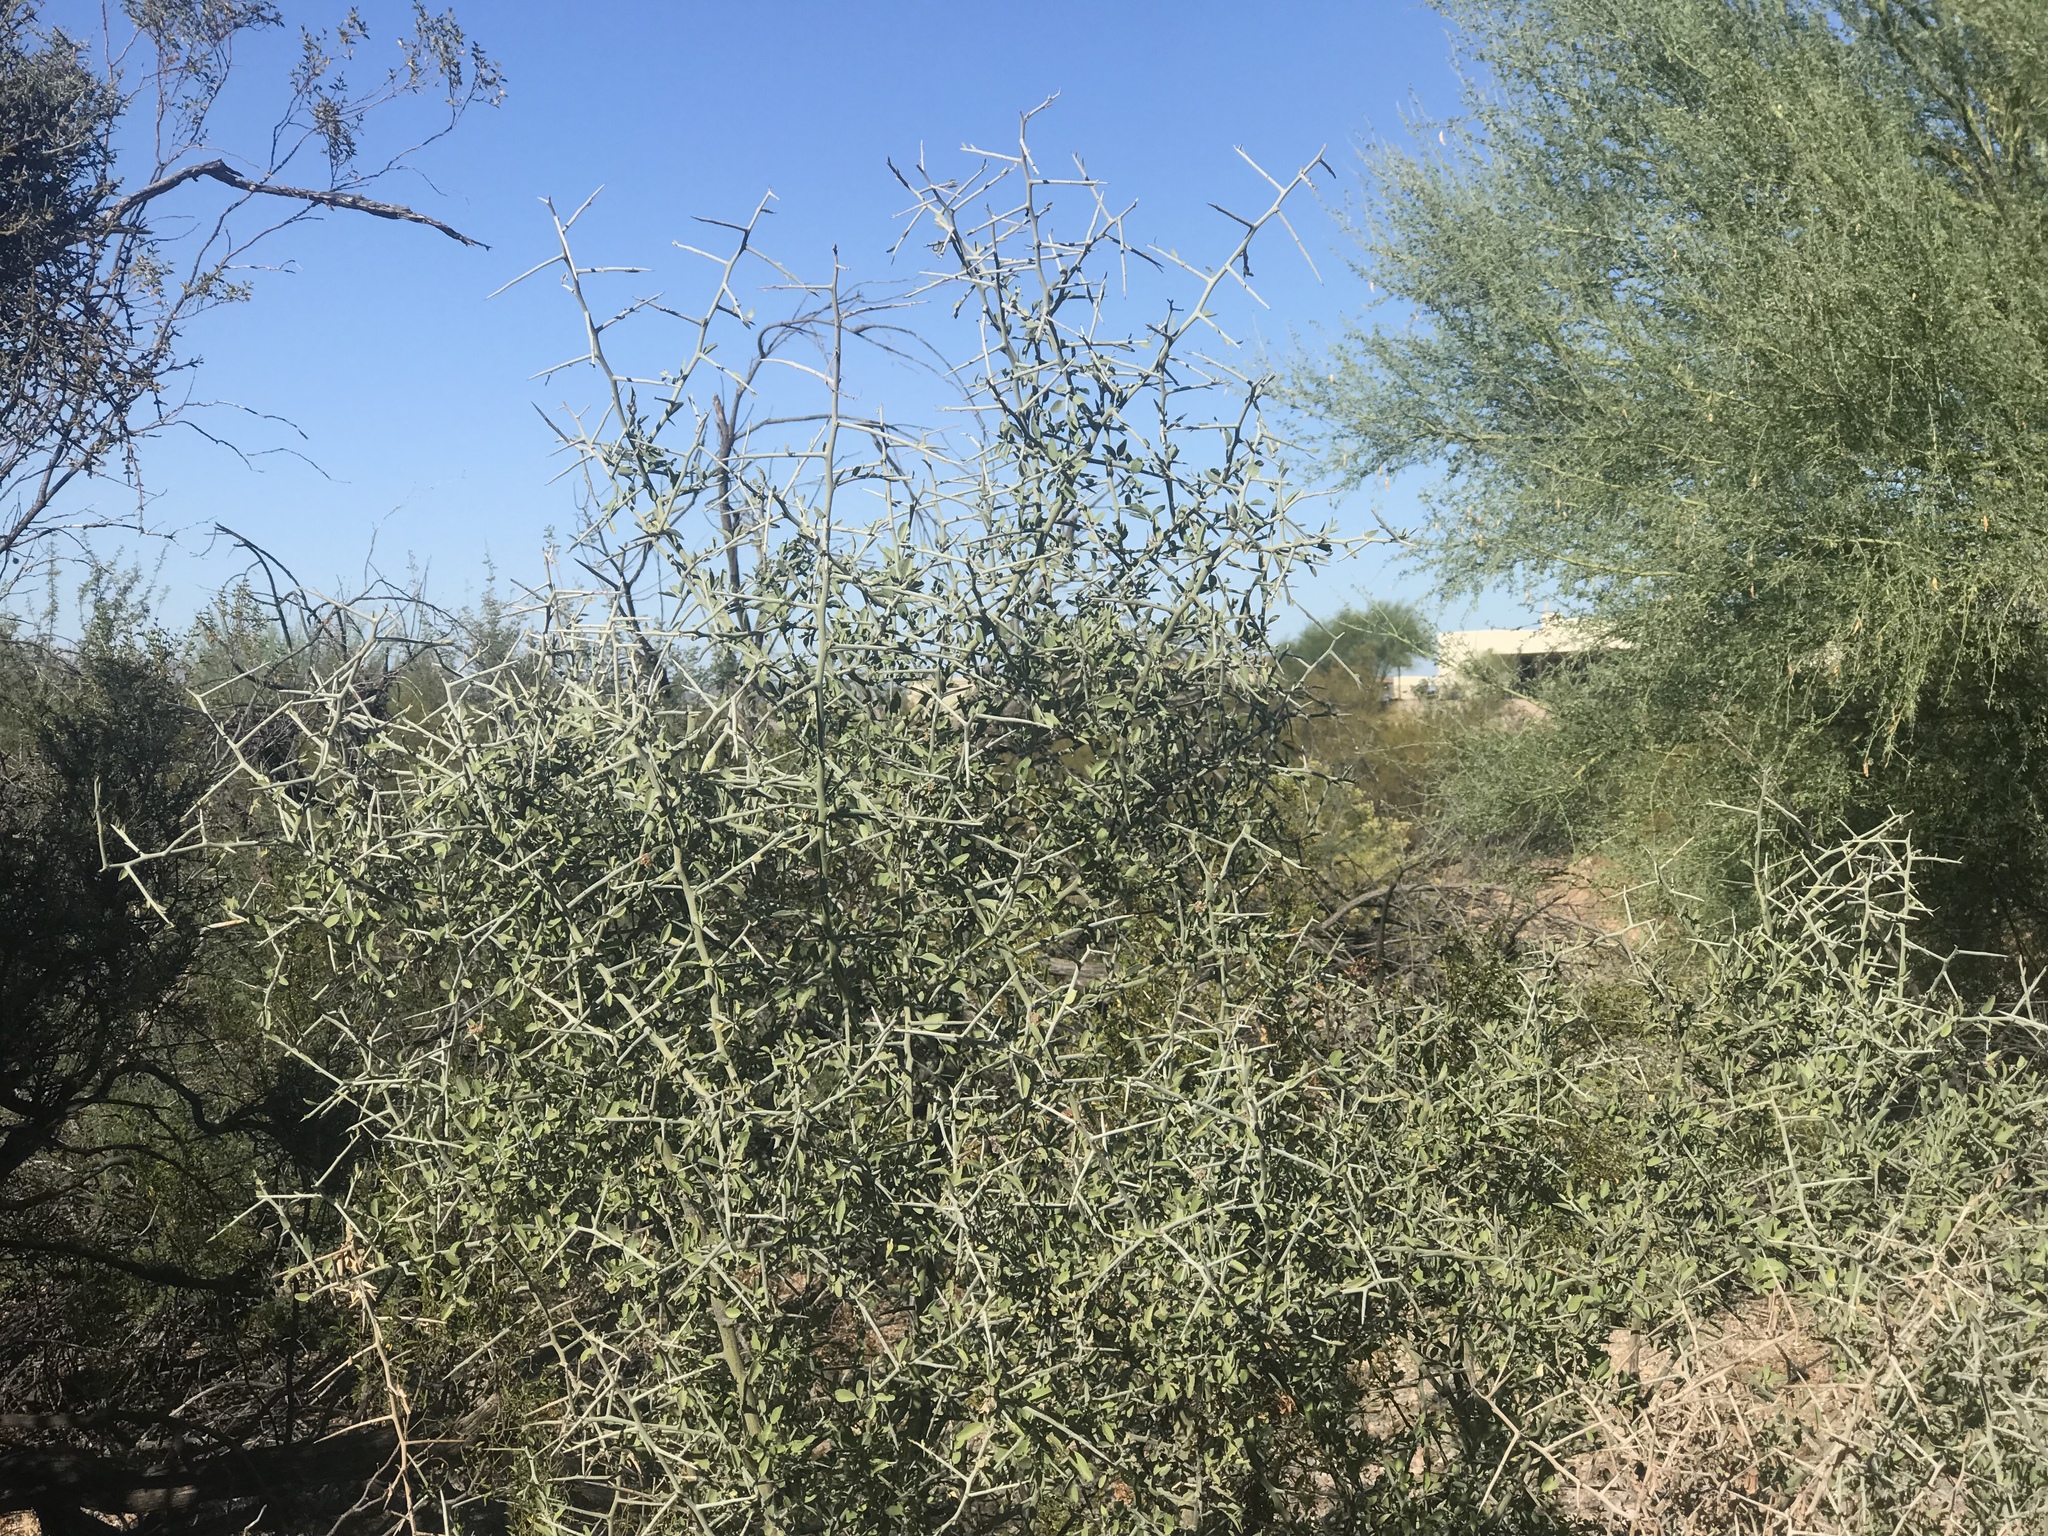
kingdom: Plantae
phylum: Tracheophyta
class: Magnoliopsida
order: Rosales
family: Rhamnaceae
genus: Sarcomphalus
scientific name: Sarcomphalus obtusifolius
